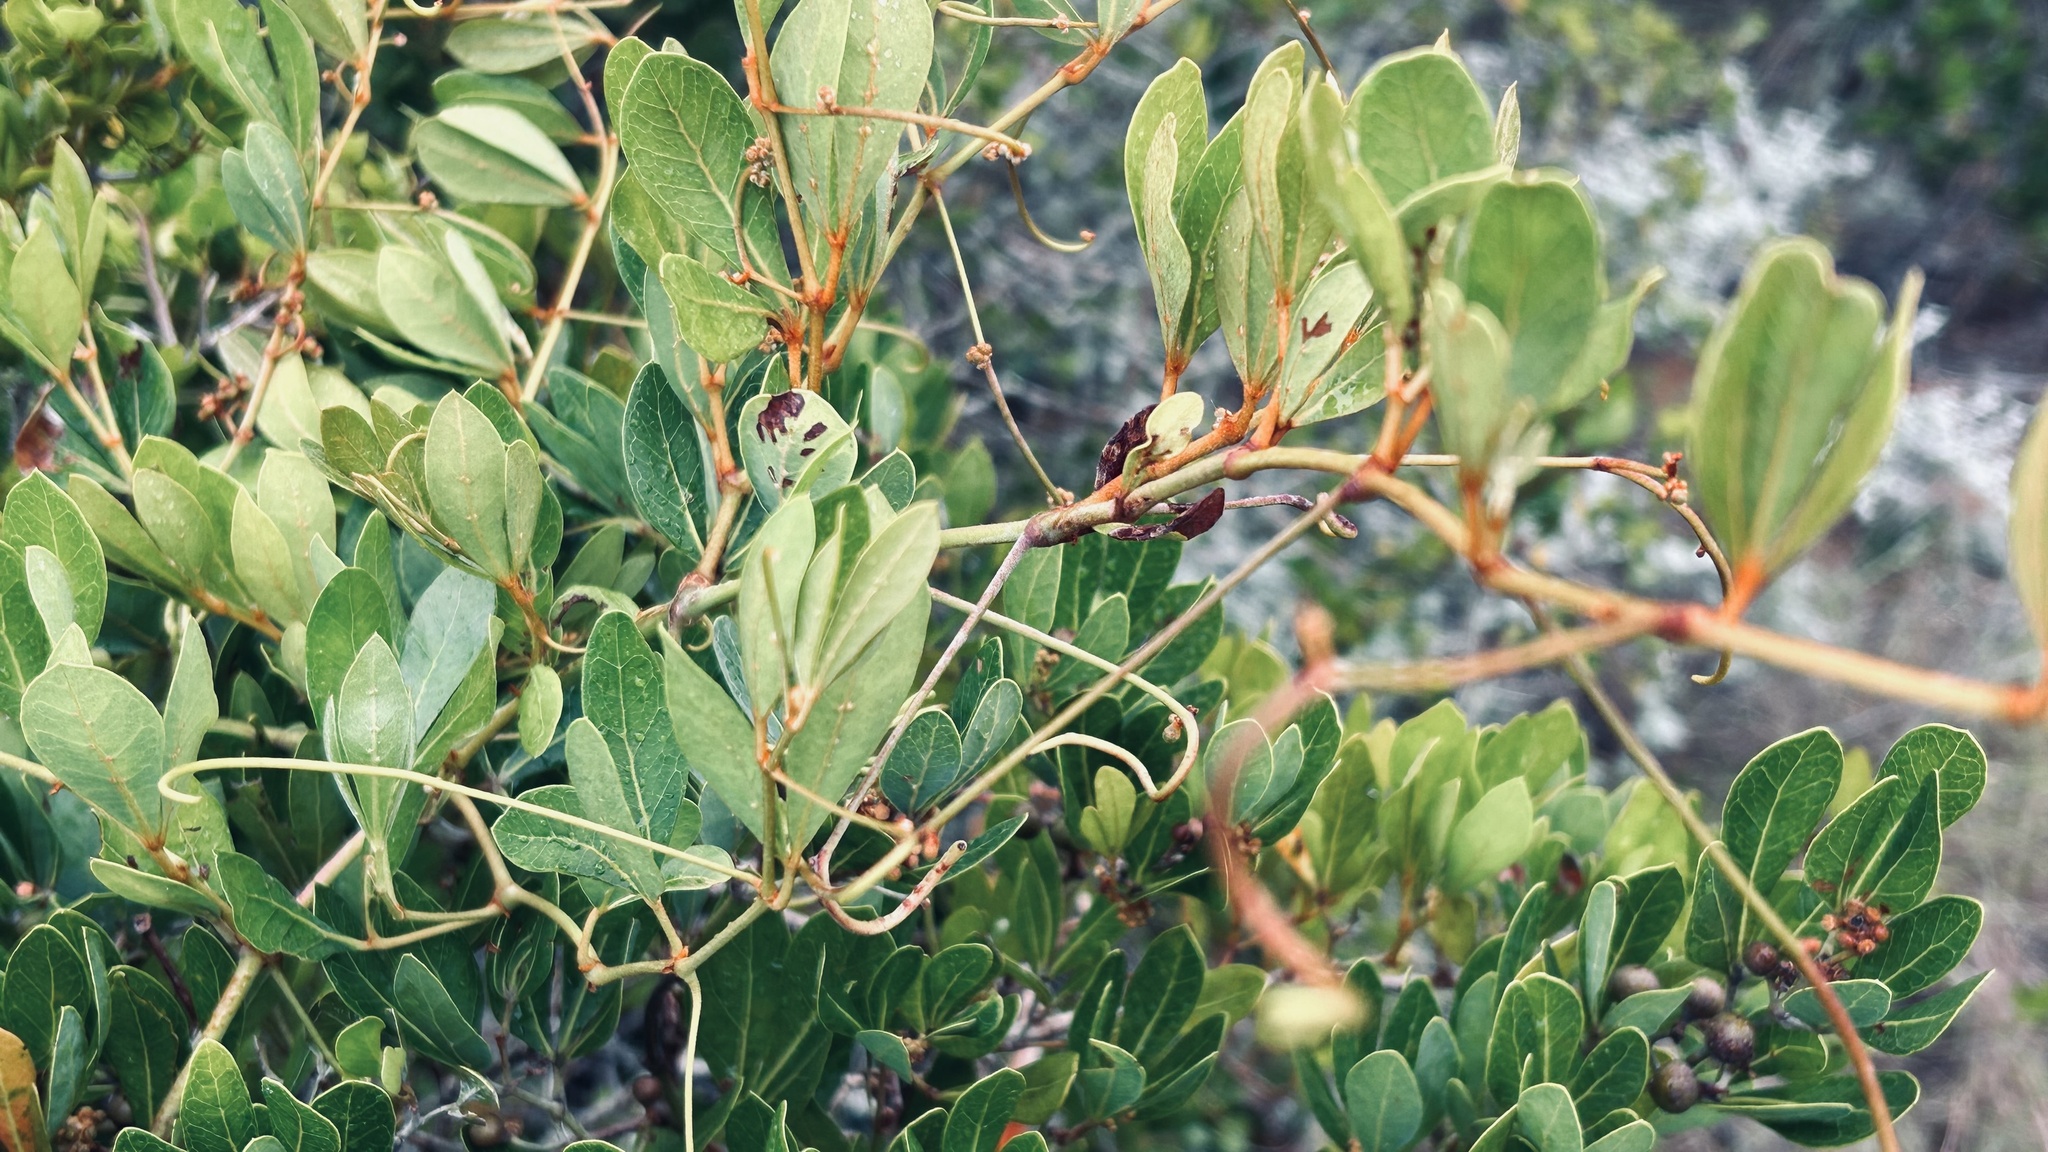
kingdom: Plantae
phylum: Tracheophyta
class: Magnoliopsida
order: Vitales
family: Vitaceae
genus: Rhoicissus
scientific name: Rhoicissus digitata
